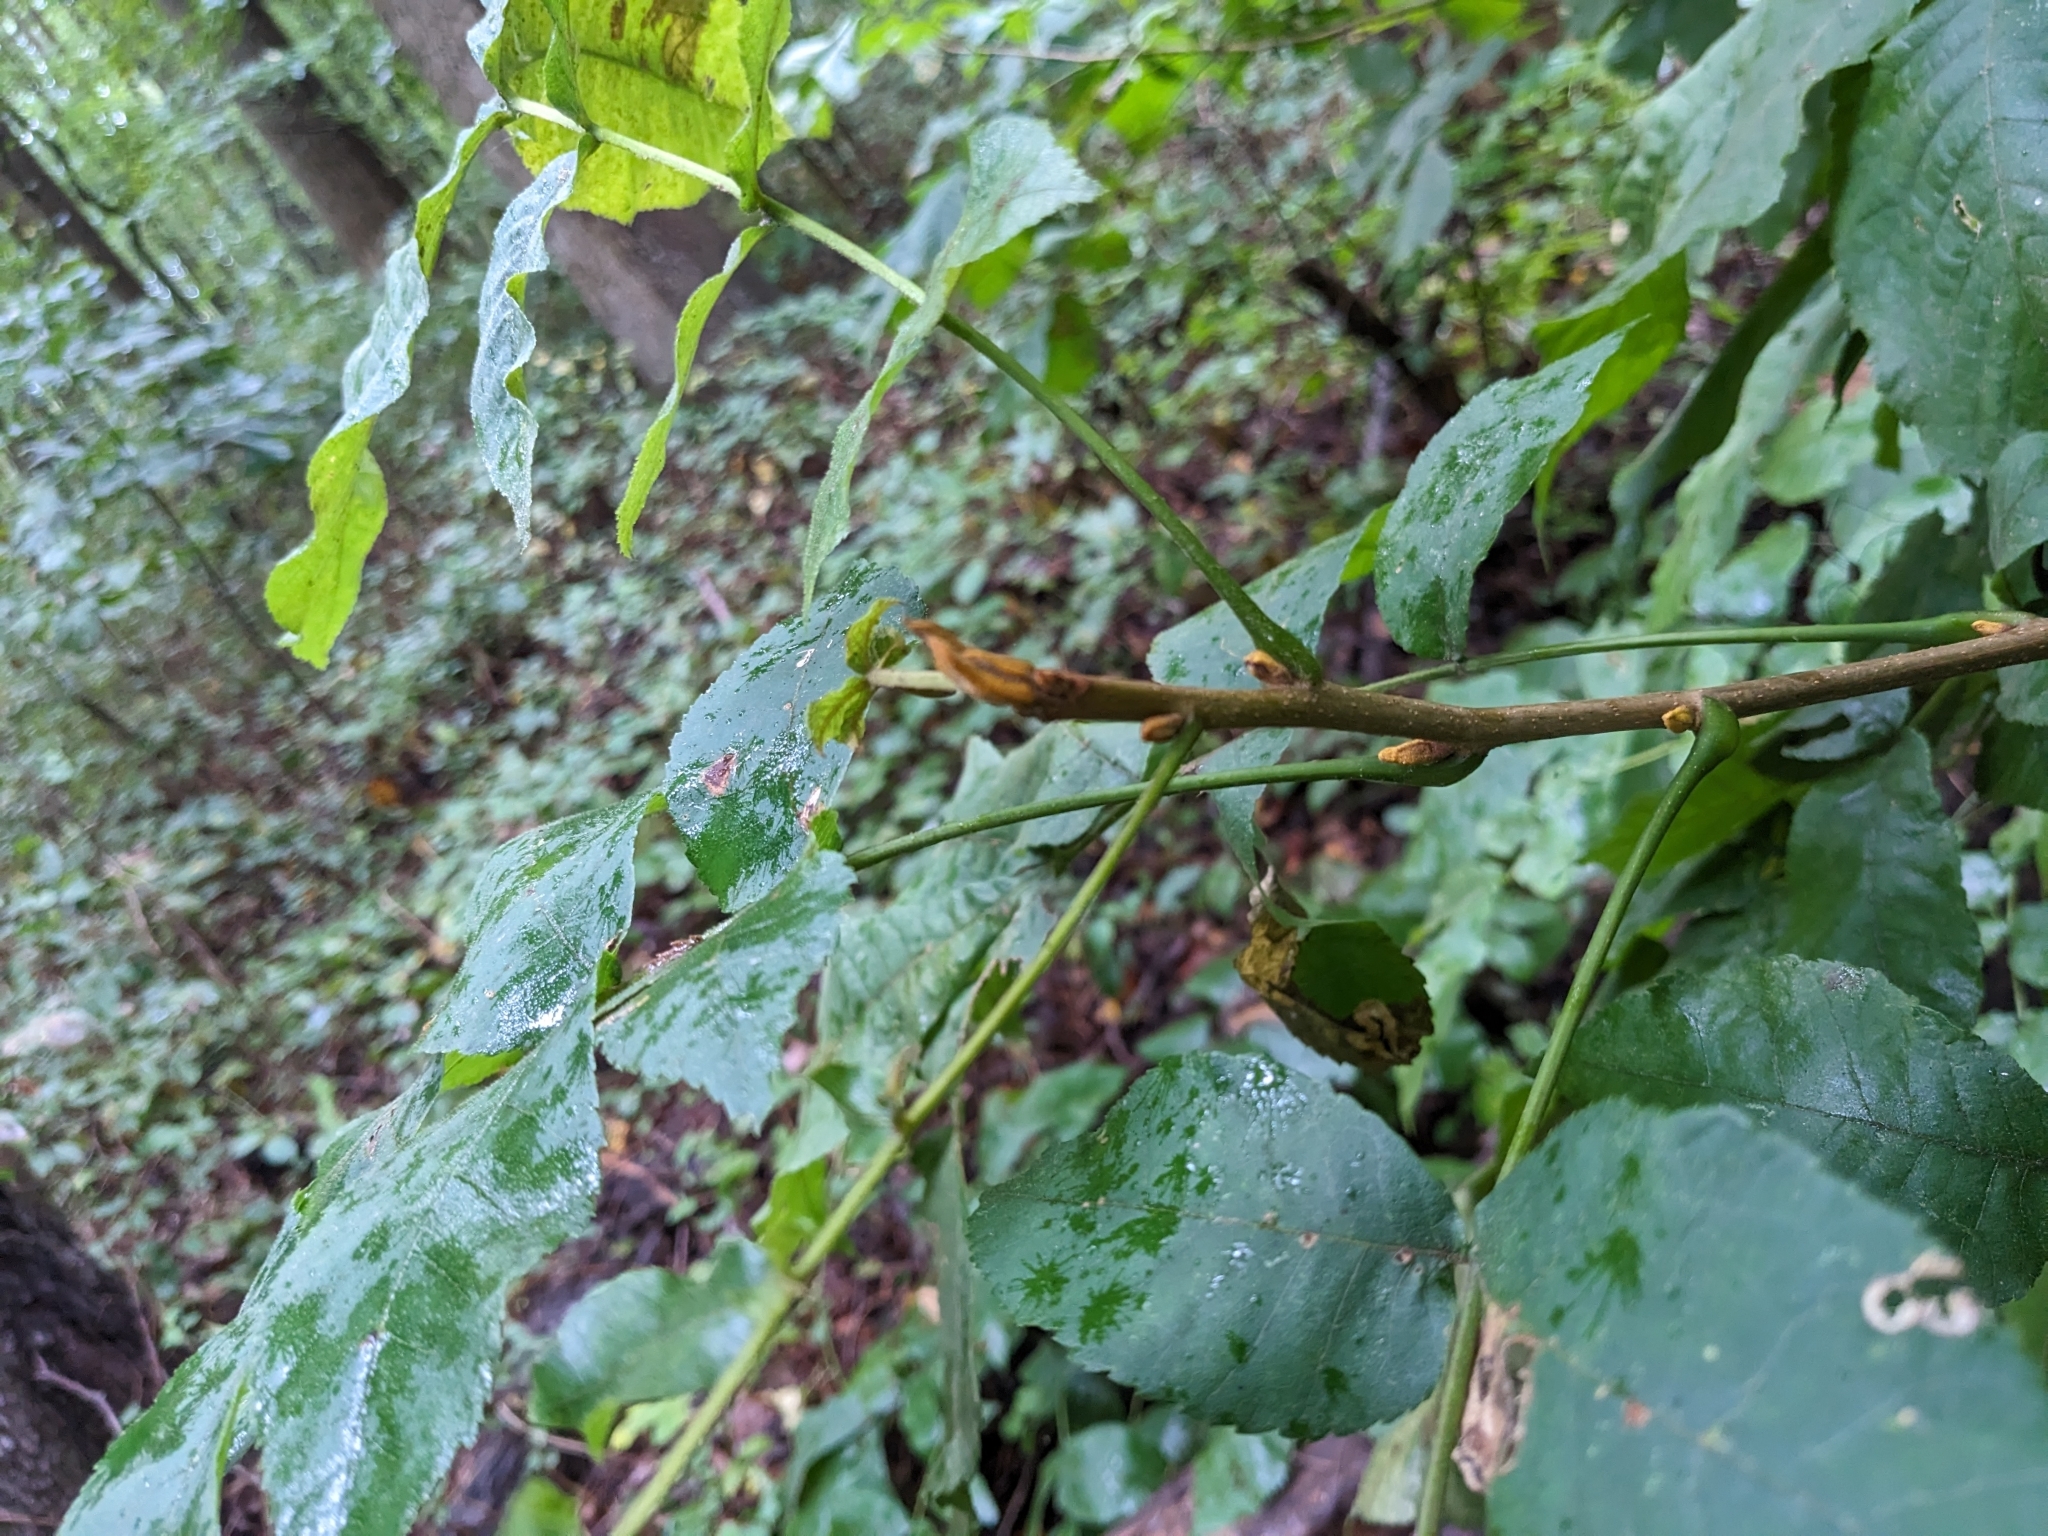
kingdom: Plantae
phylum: Tracheophyta
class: Magnoliopsida
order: Fagales
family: Juglandaceae
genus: Carya
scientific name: Carya cordiformis
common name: Bitternut hickory
